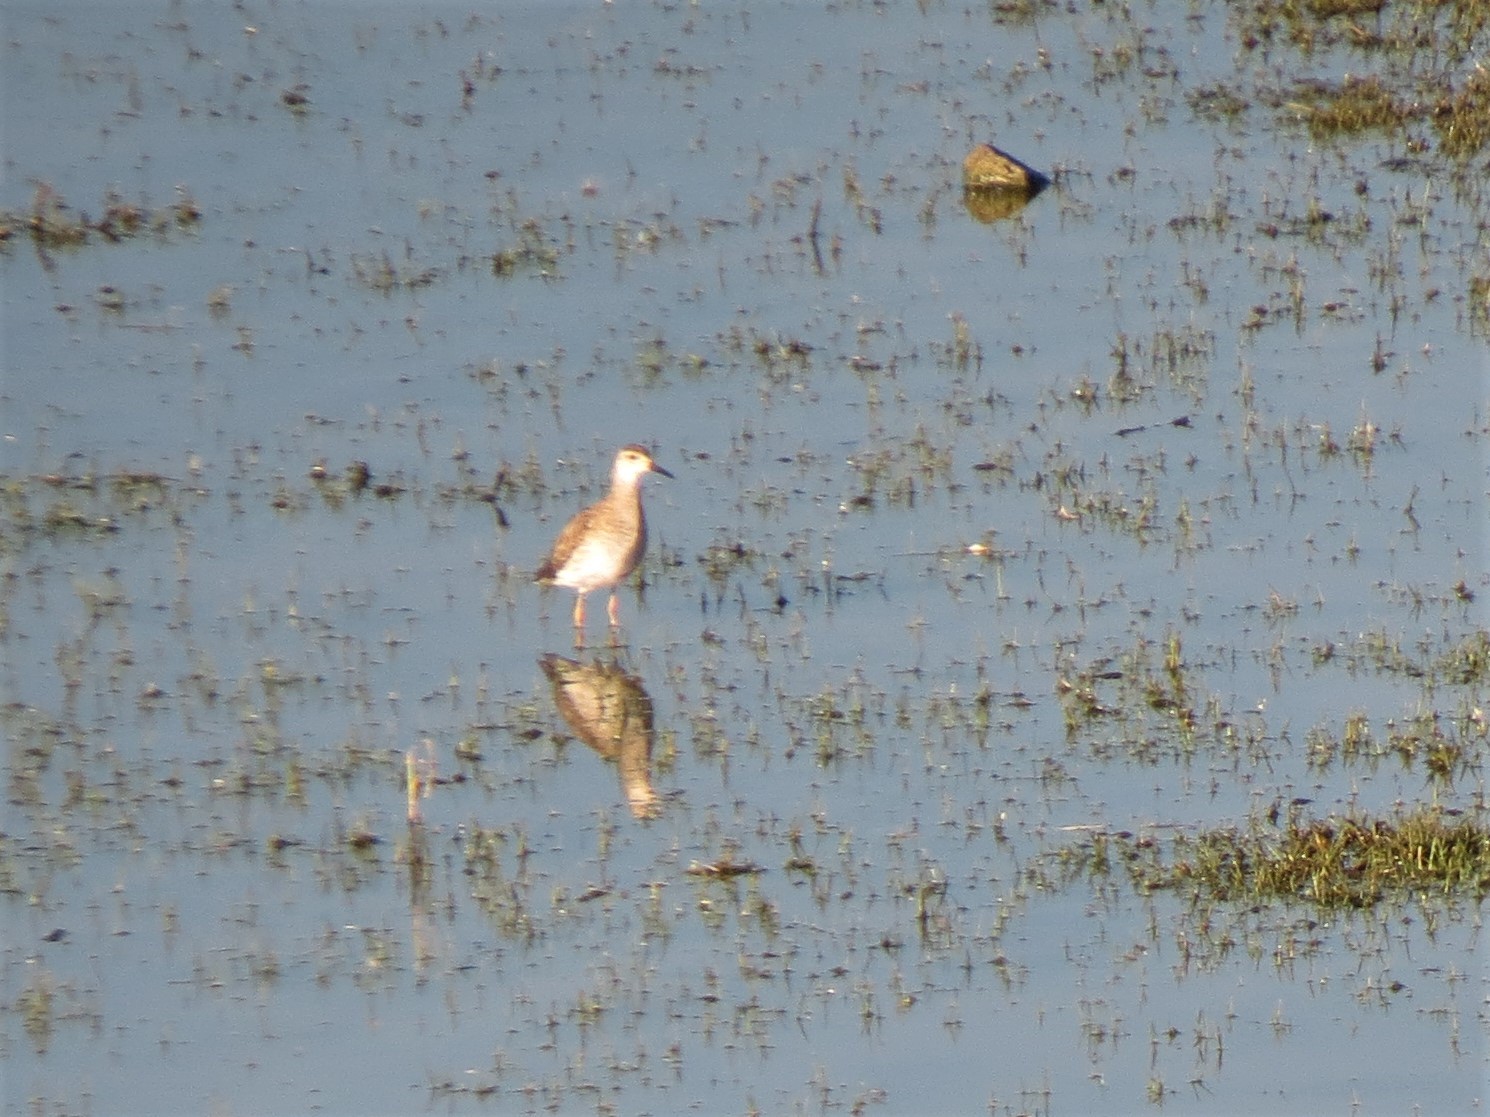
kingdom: Animalia
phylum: Chordata
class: Aves
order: Charadriiformes
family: Scolopacidae
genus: Calidris
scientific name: Calidris pugnax
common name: Ruff
